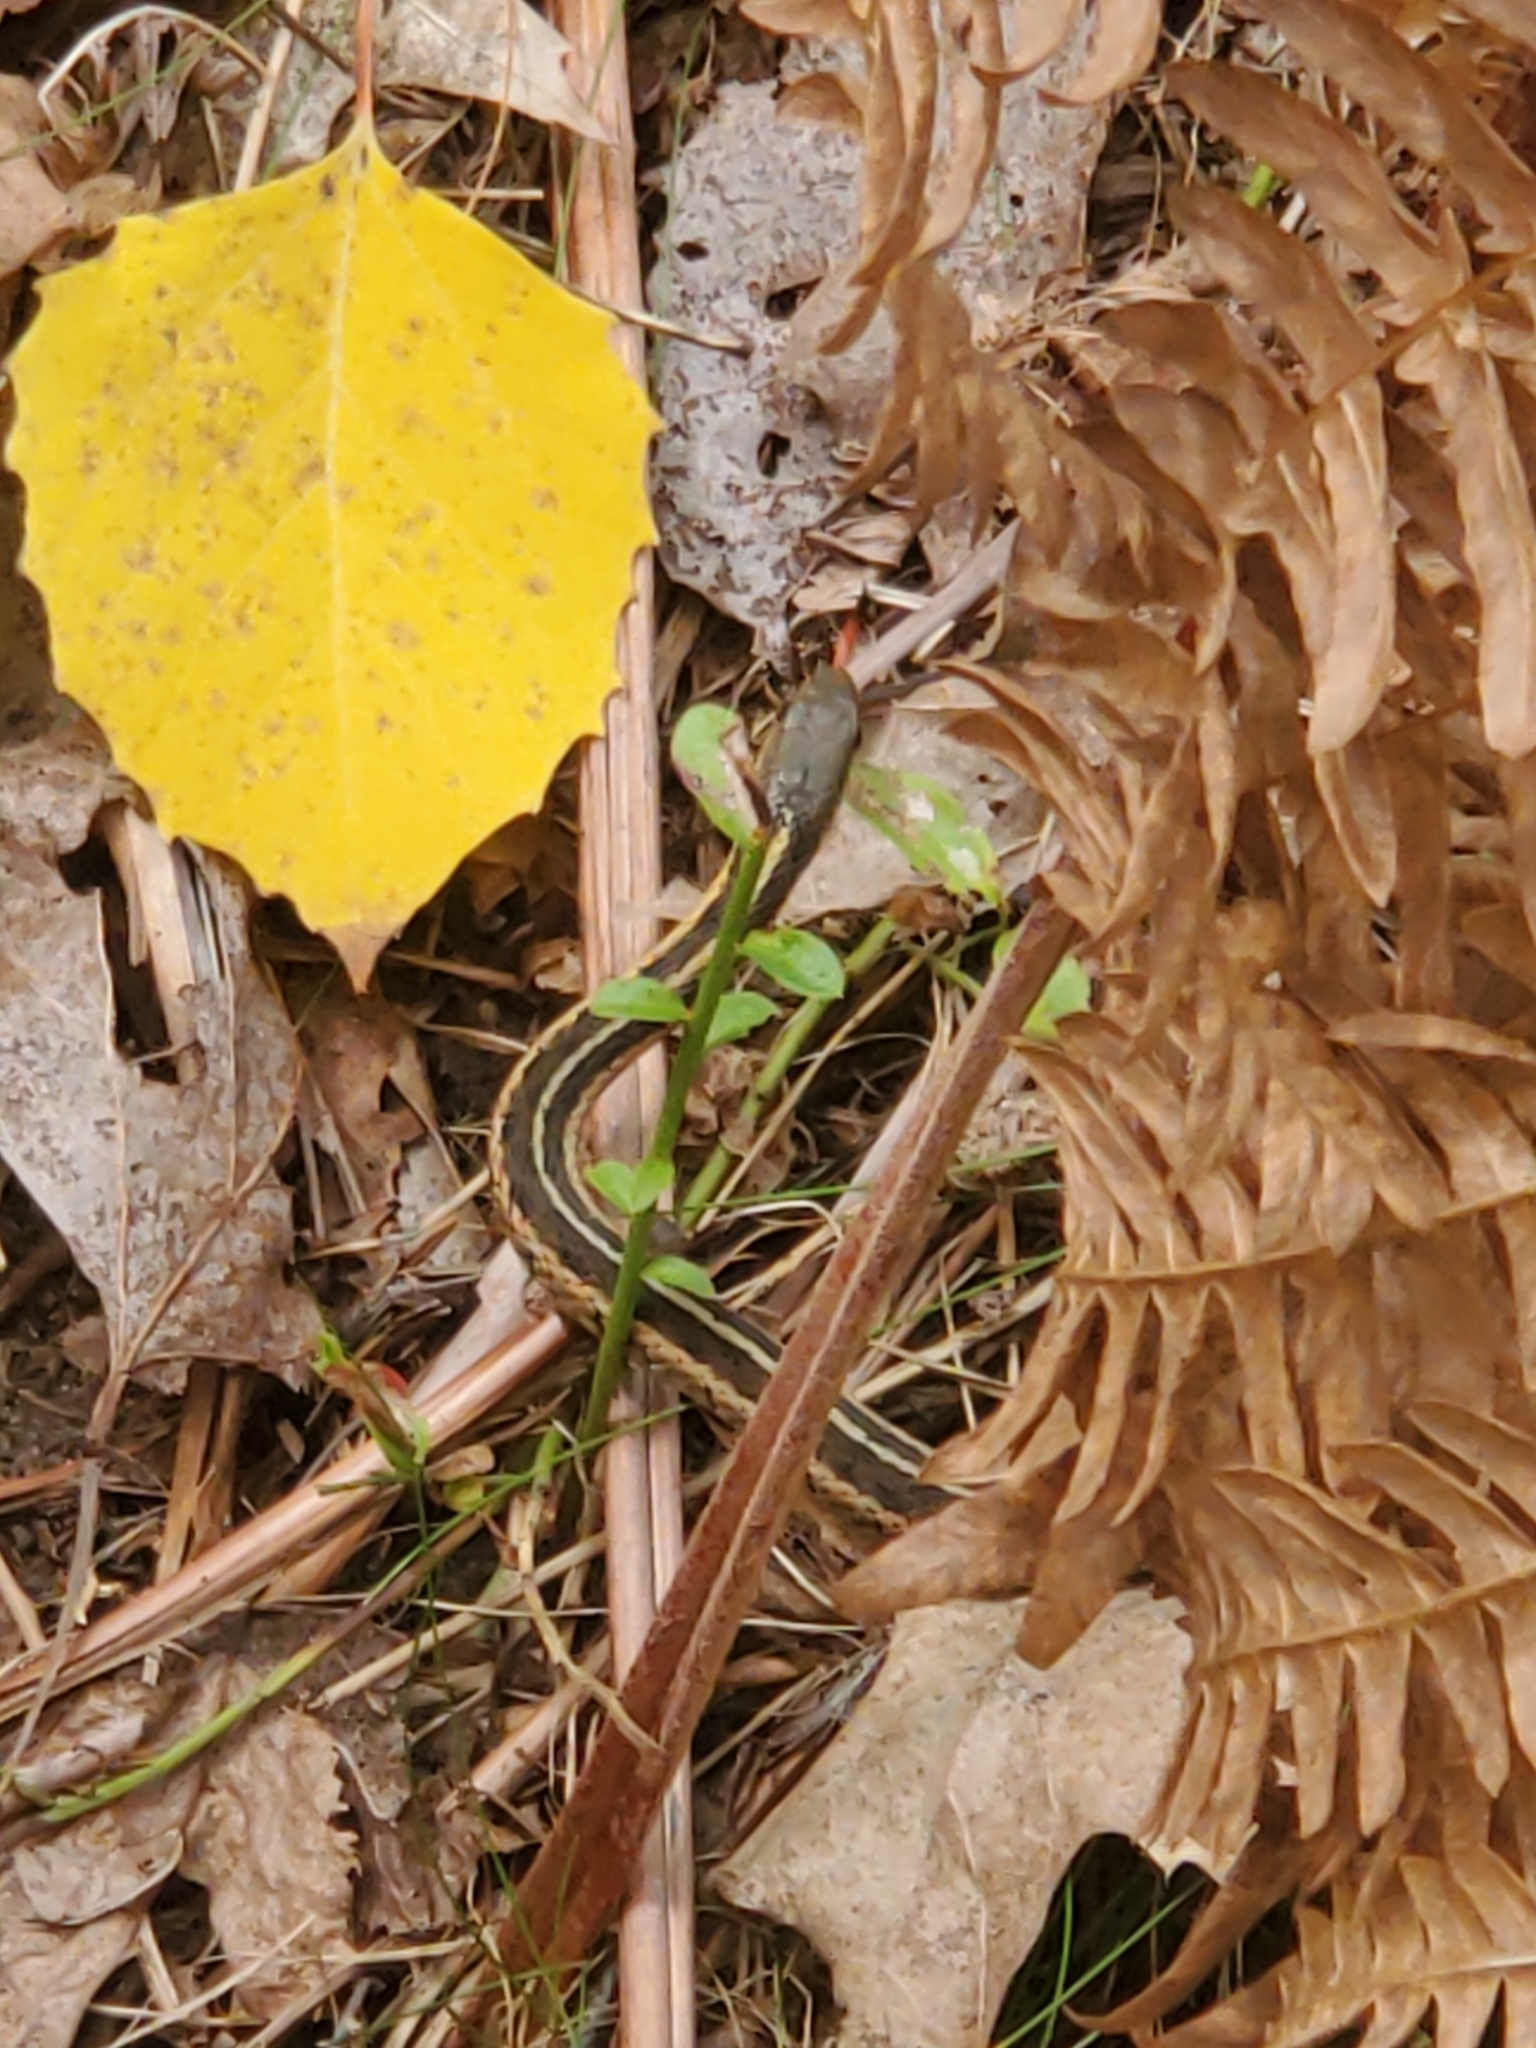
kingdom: Animalia
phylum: Chordata
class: Squamata
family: Colubridae
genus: Thamnophis
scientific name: Thamnophis sirtalis
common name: Common garter snake
